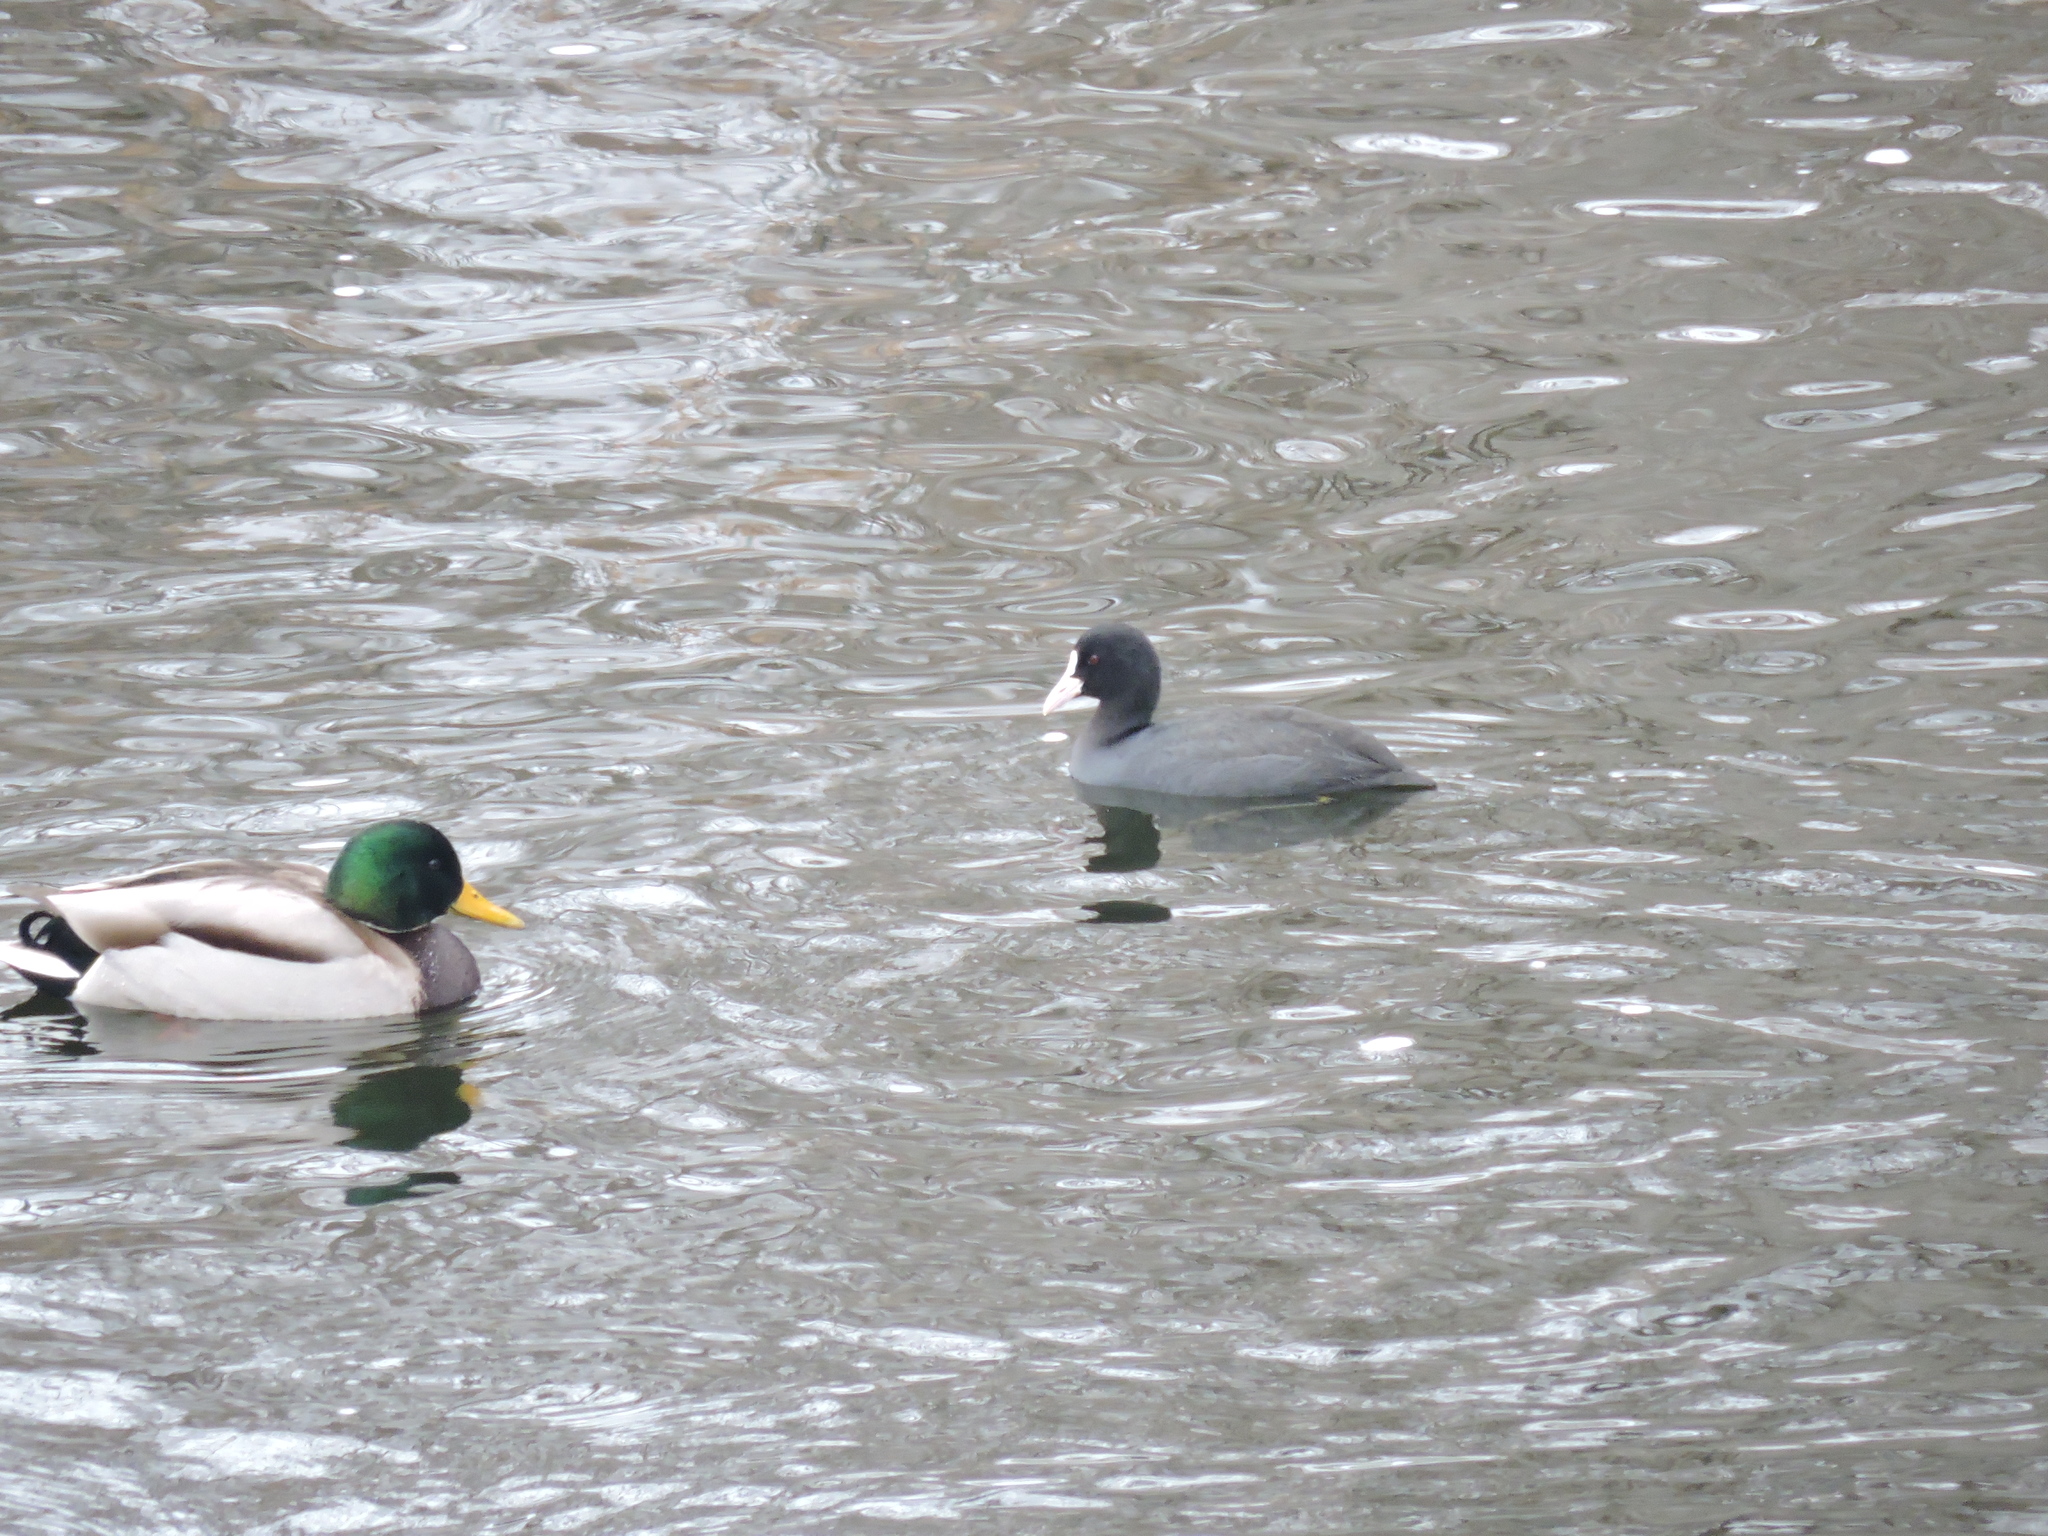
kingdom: Animalia
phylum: Chordata
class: Aves
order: Anseriformes
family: Anatidae
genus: Anas
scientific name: Anas platyrhynchos
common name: Mallard
